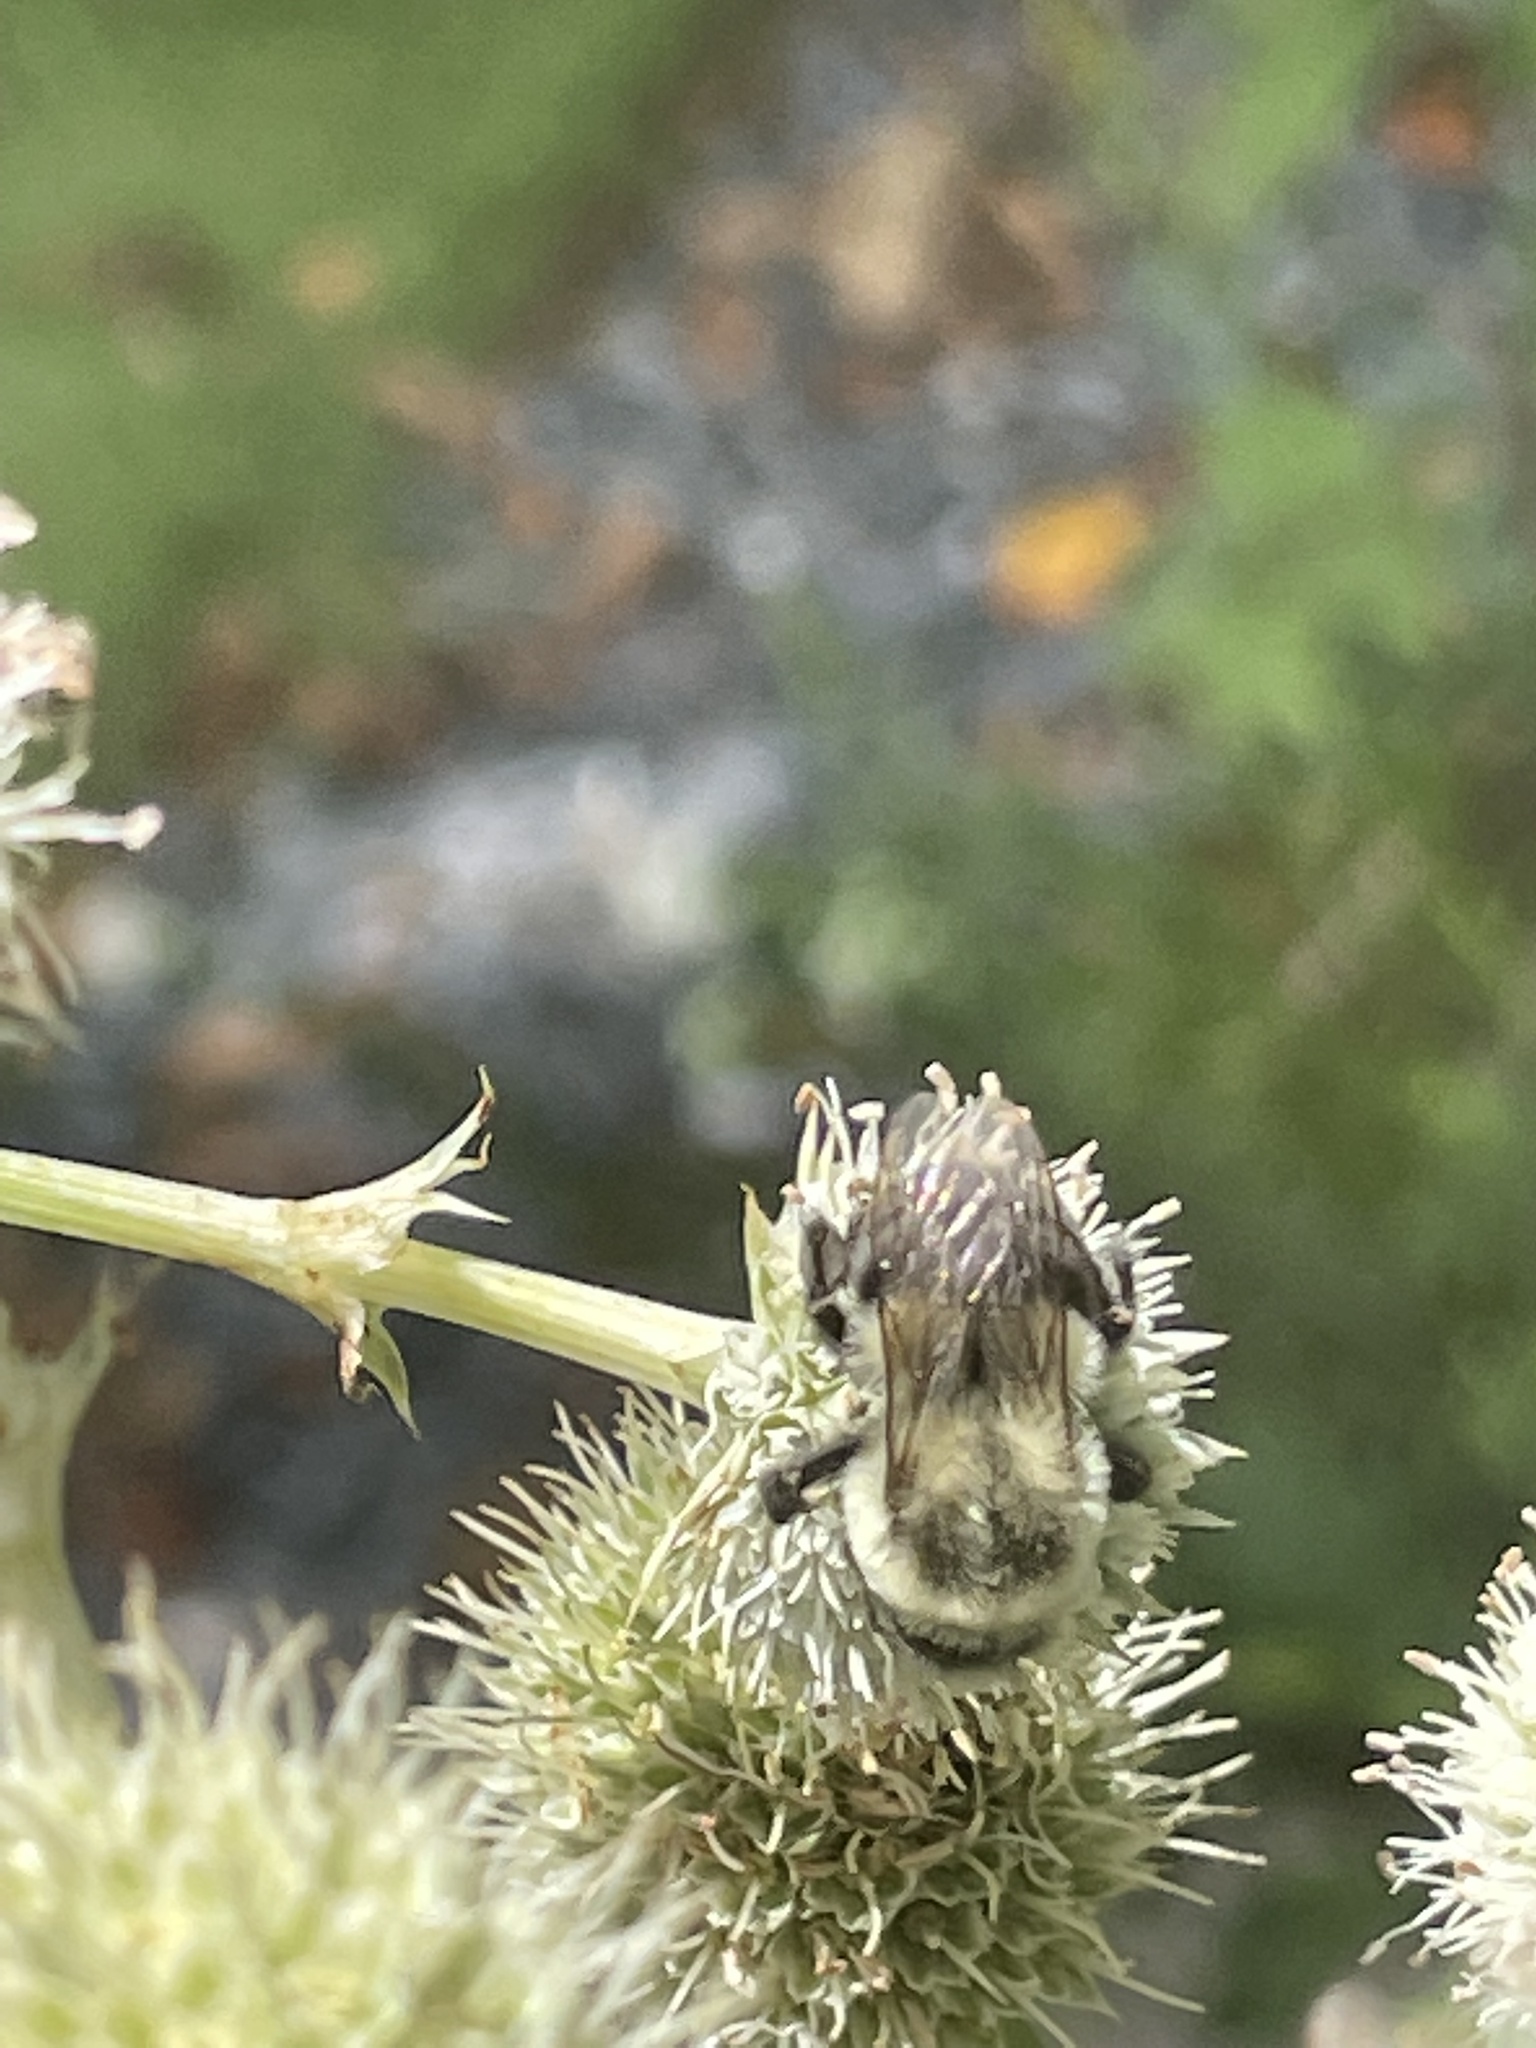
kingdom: Animalia
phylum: Arthropoda
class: Insecta
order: Hymenoptera
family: Apidae
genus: Bombus
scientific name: Bombus impatiens
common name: Common eastern bumble bee
